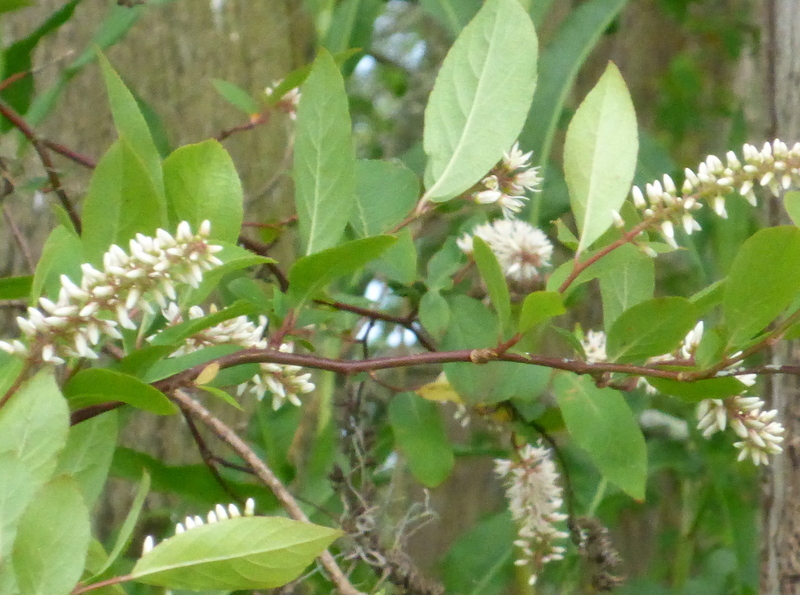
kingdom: Plantae
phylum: Tracheophyta
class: Magnoliopsida
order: Saxifragales
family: Iteaceae
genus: Itea
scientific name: Itea virginica
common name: Sweetspire
